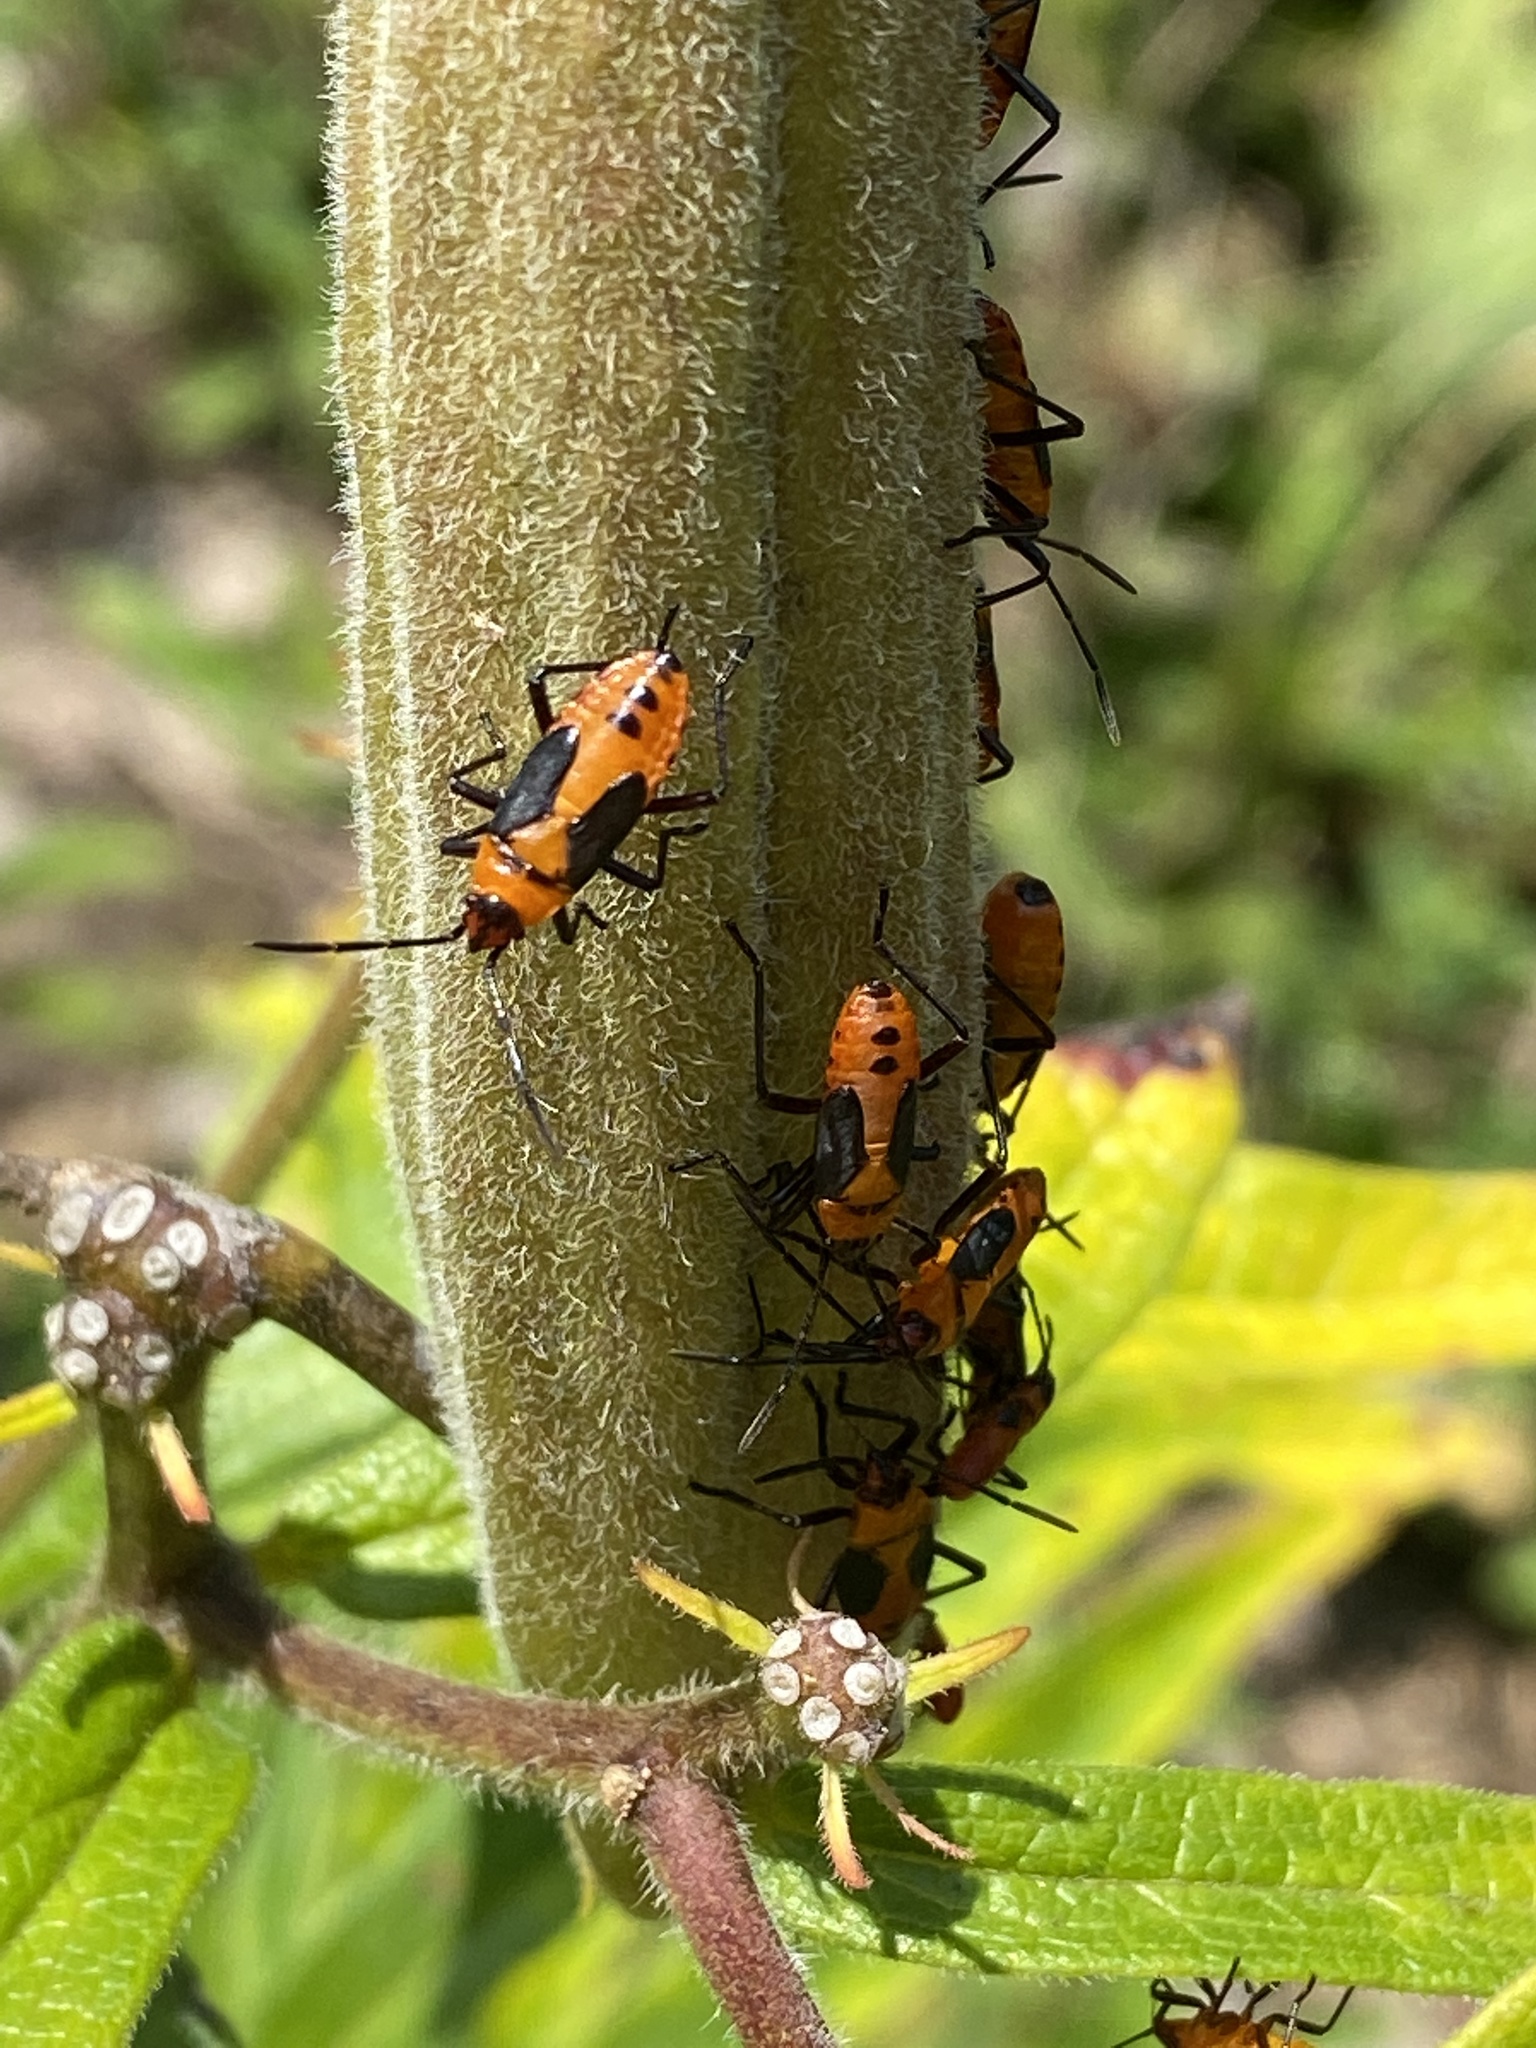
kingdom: Animalia
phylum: Arthropoda
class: Insecta
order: Hemiptera
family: Lygaeidae
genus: Oncopeltus
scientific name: Oncopeltus fasciatus
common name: Large milkweed bug
